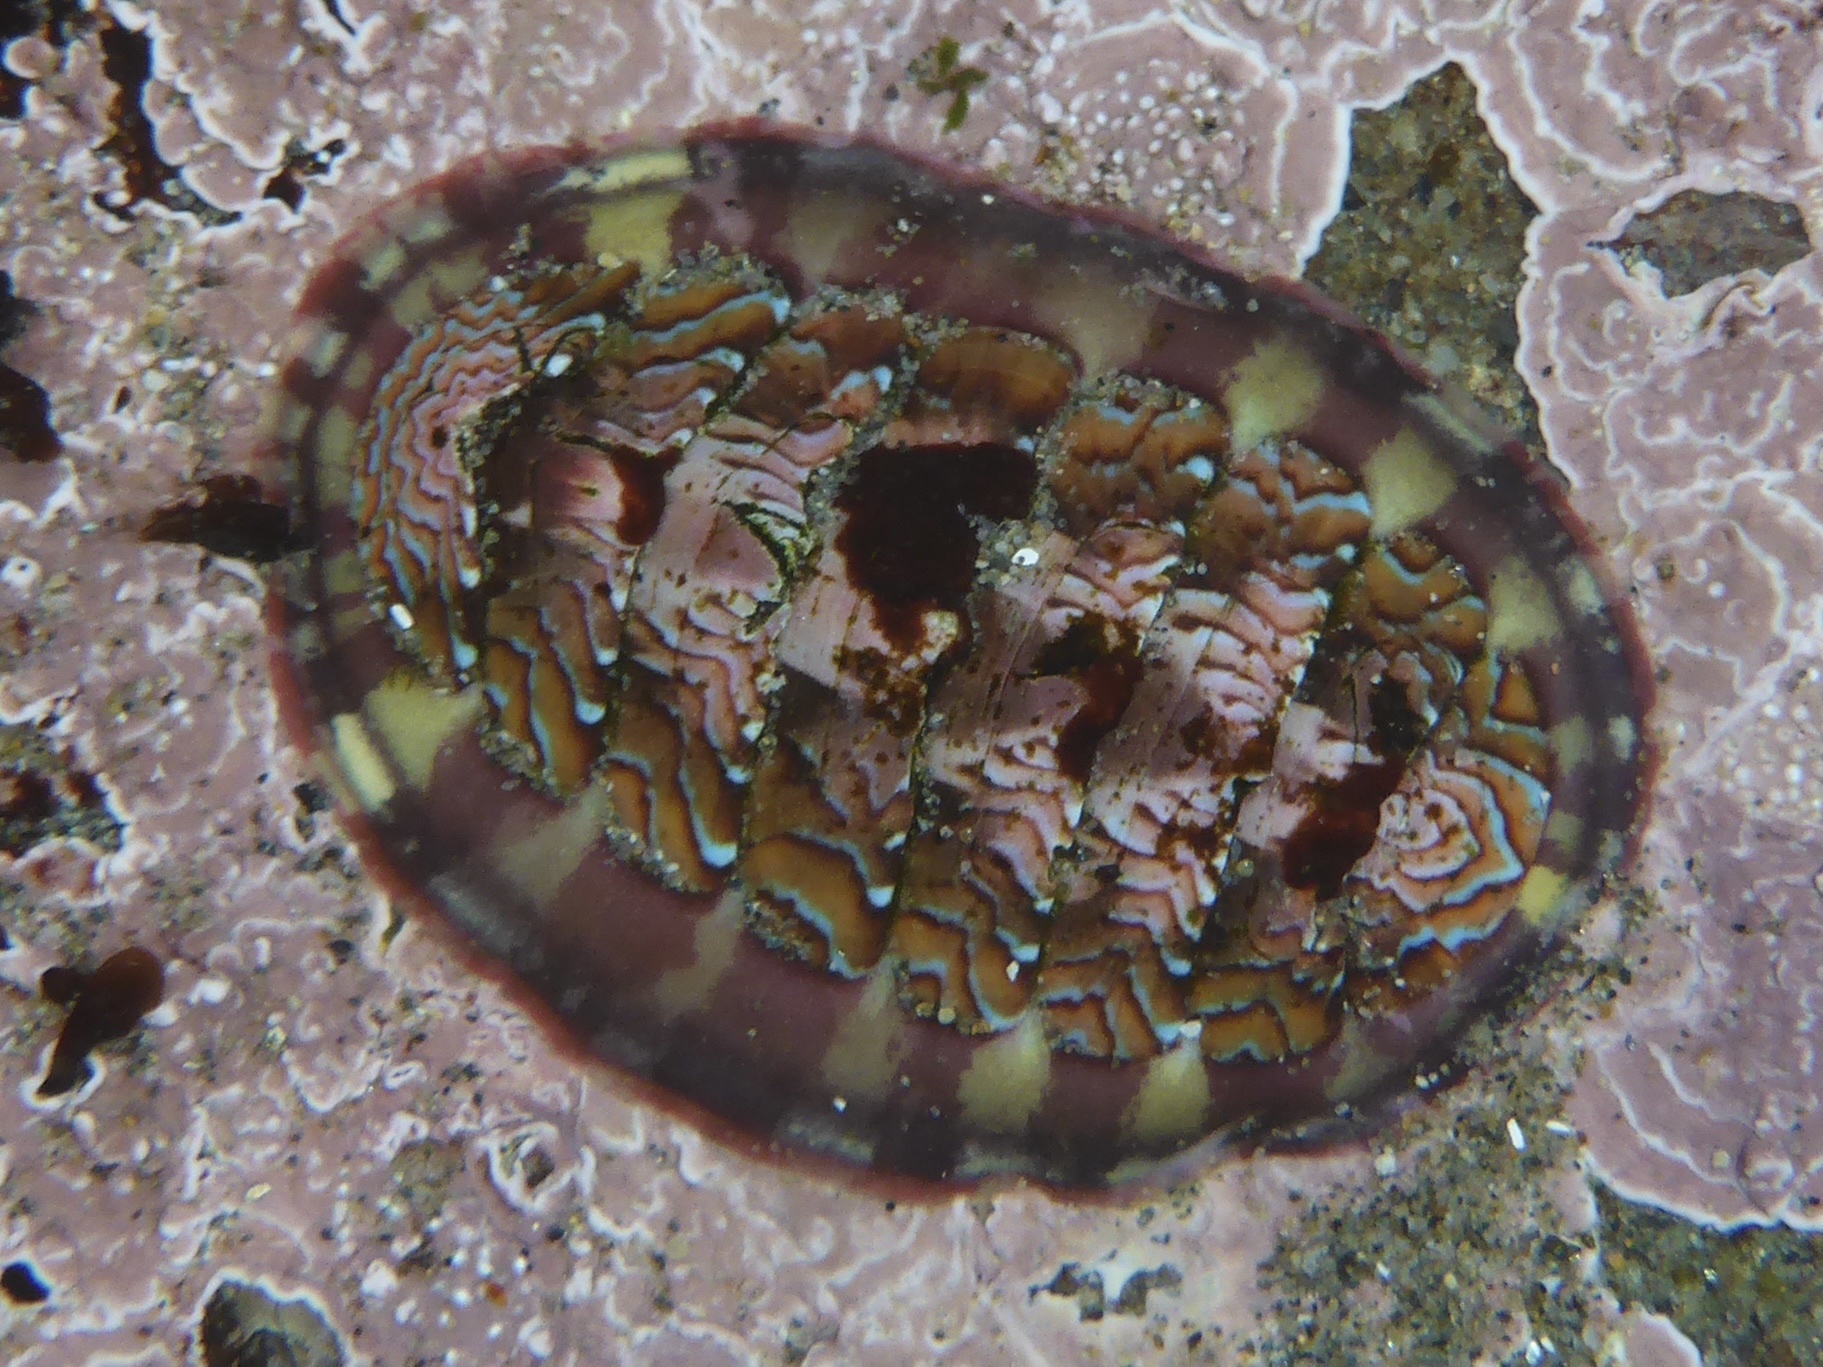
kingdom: Animalia
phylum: Mollusca
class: Polyplacophora
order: Chitonida
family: Tonicellidae
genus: Tonicella
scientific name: Tonicella lokii
